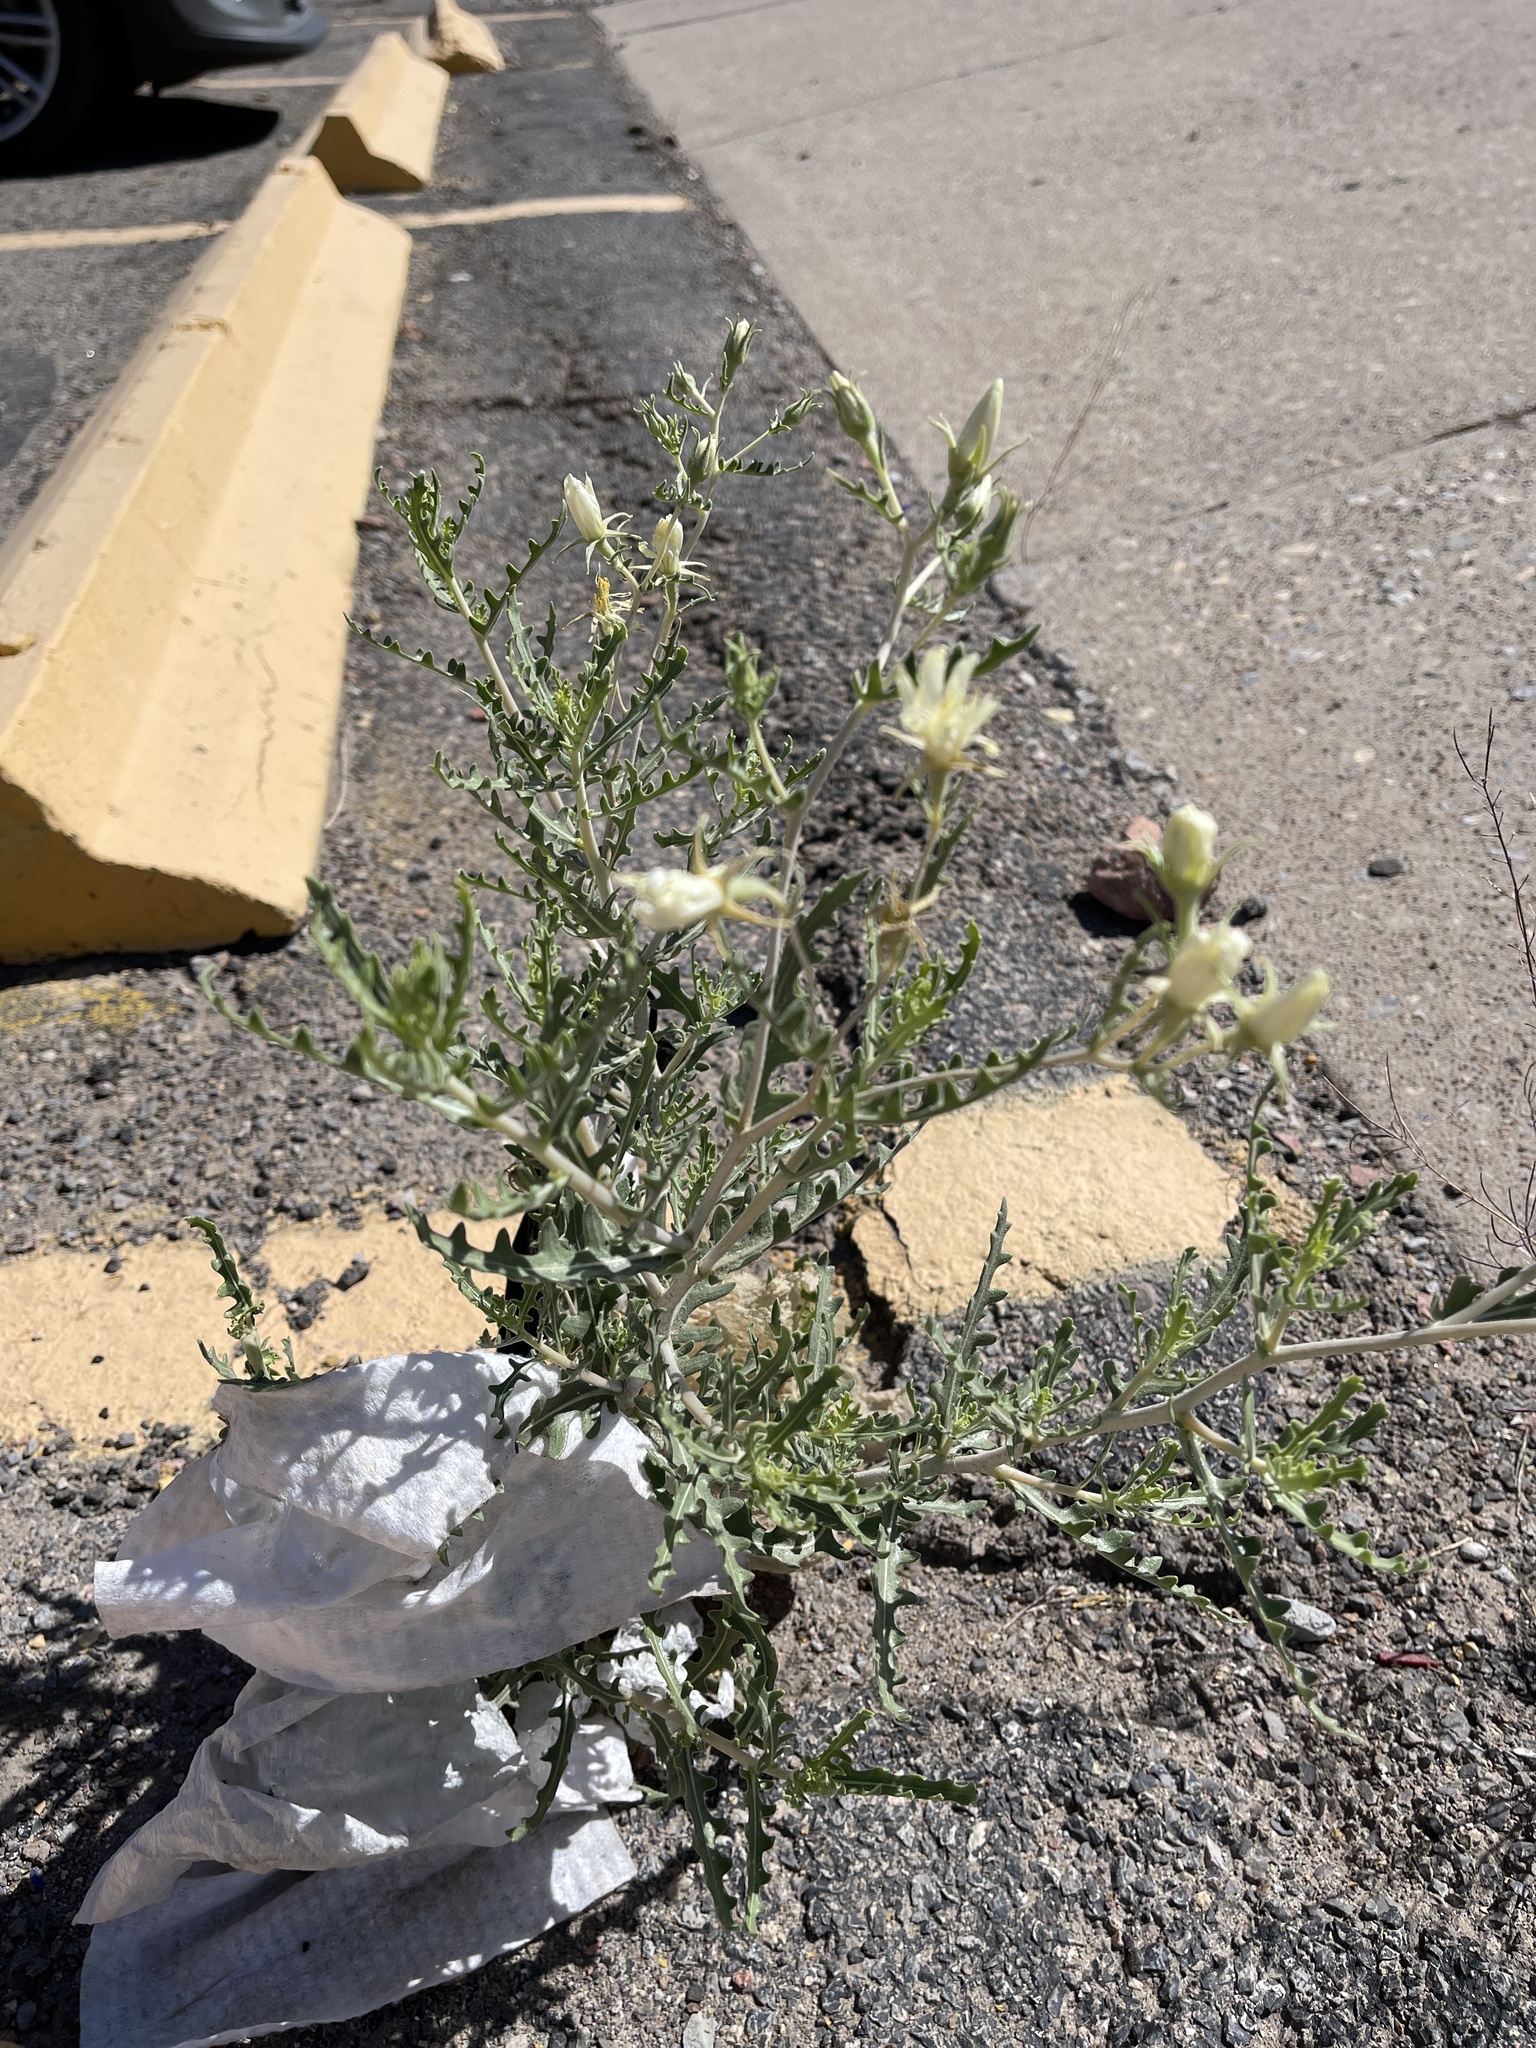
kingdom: Plantae
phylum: Tracheophyta
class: Magnoliopsida
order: Cornales
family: Loasaceae
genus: Mentzelia
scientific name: Mentzelia longiloba
